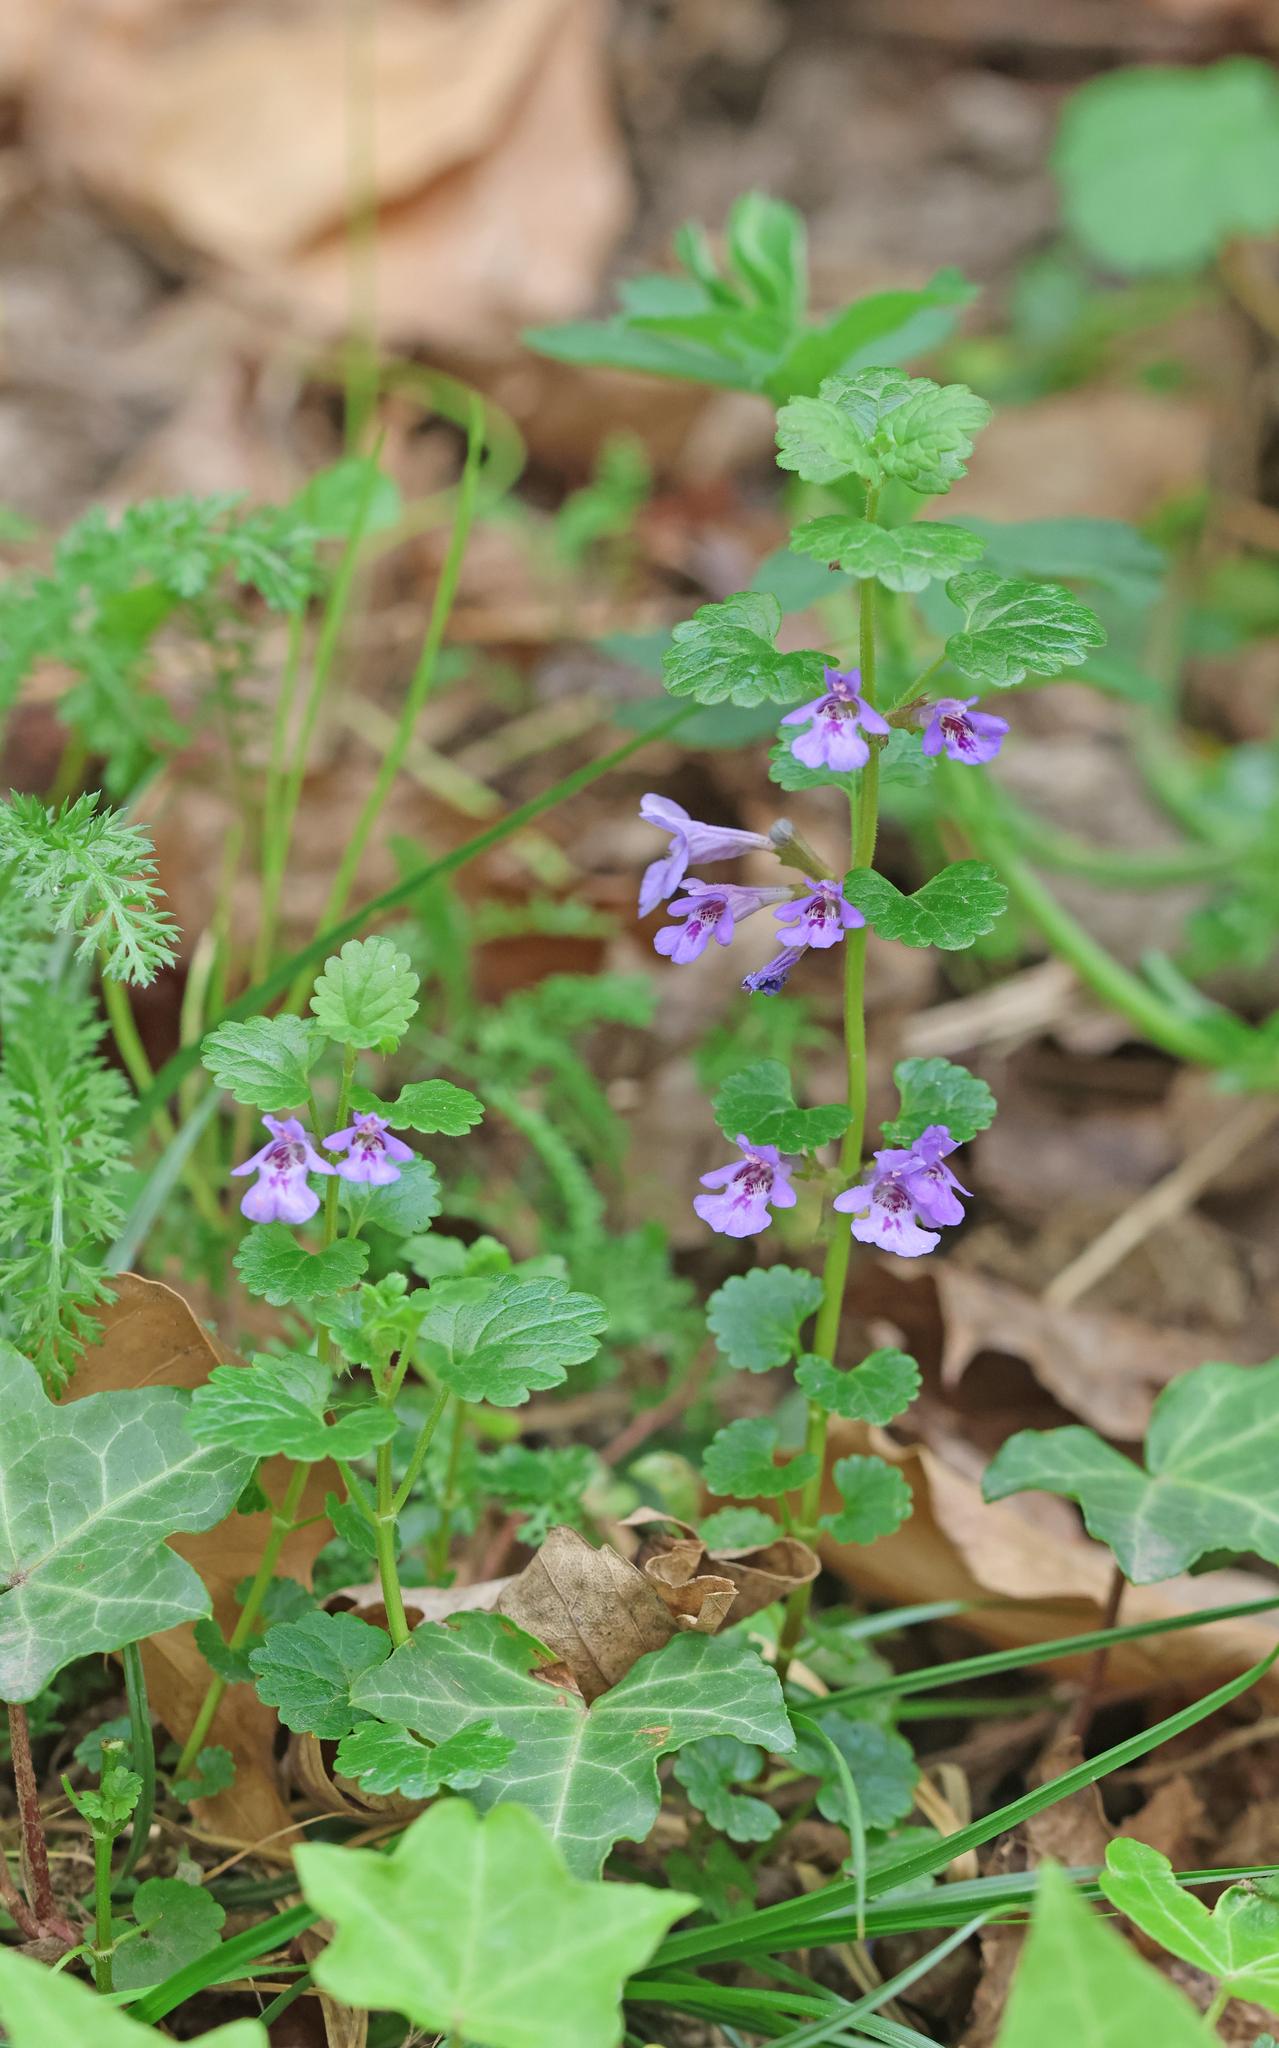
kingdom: Plantae
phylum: Tracheophyta
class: Magnoliopsida
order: Lamiales
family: Lamiaceae
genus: Glechoma
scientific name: Glechoma hederacea
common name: Ground ivy
